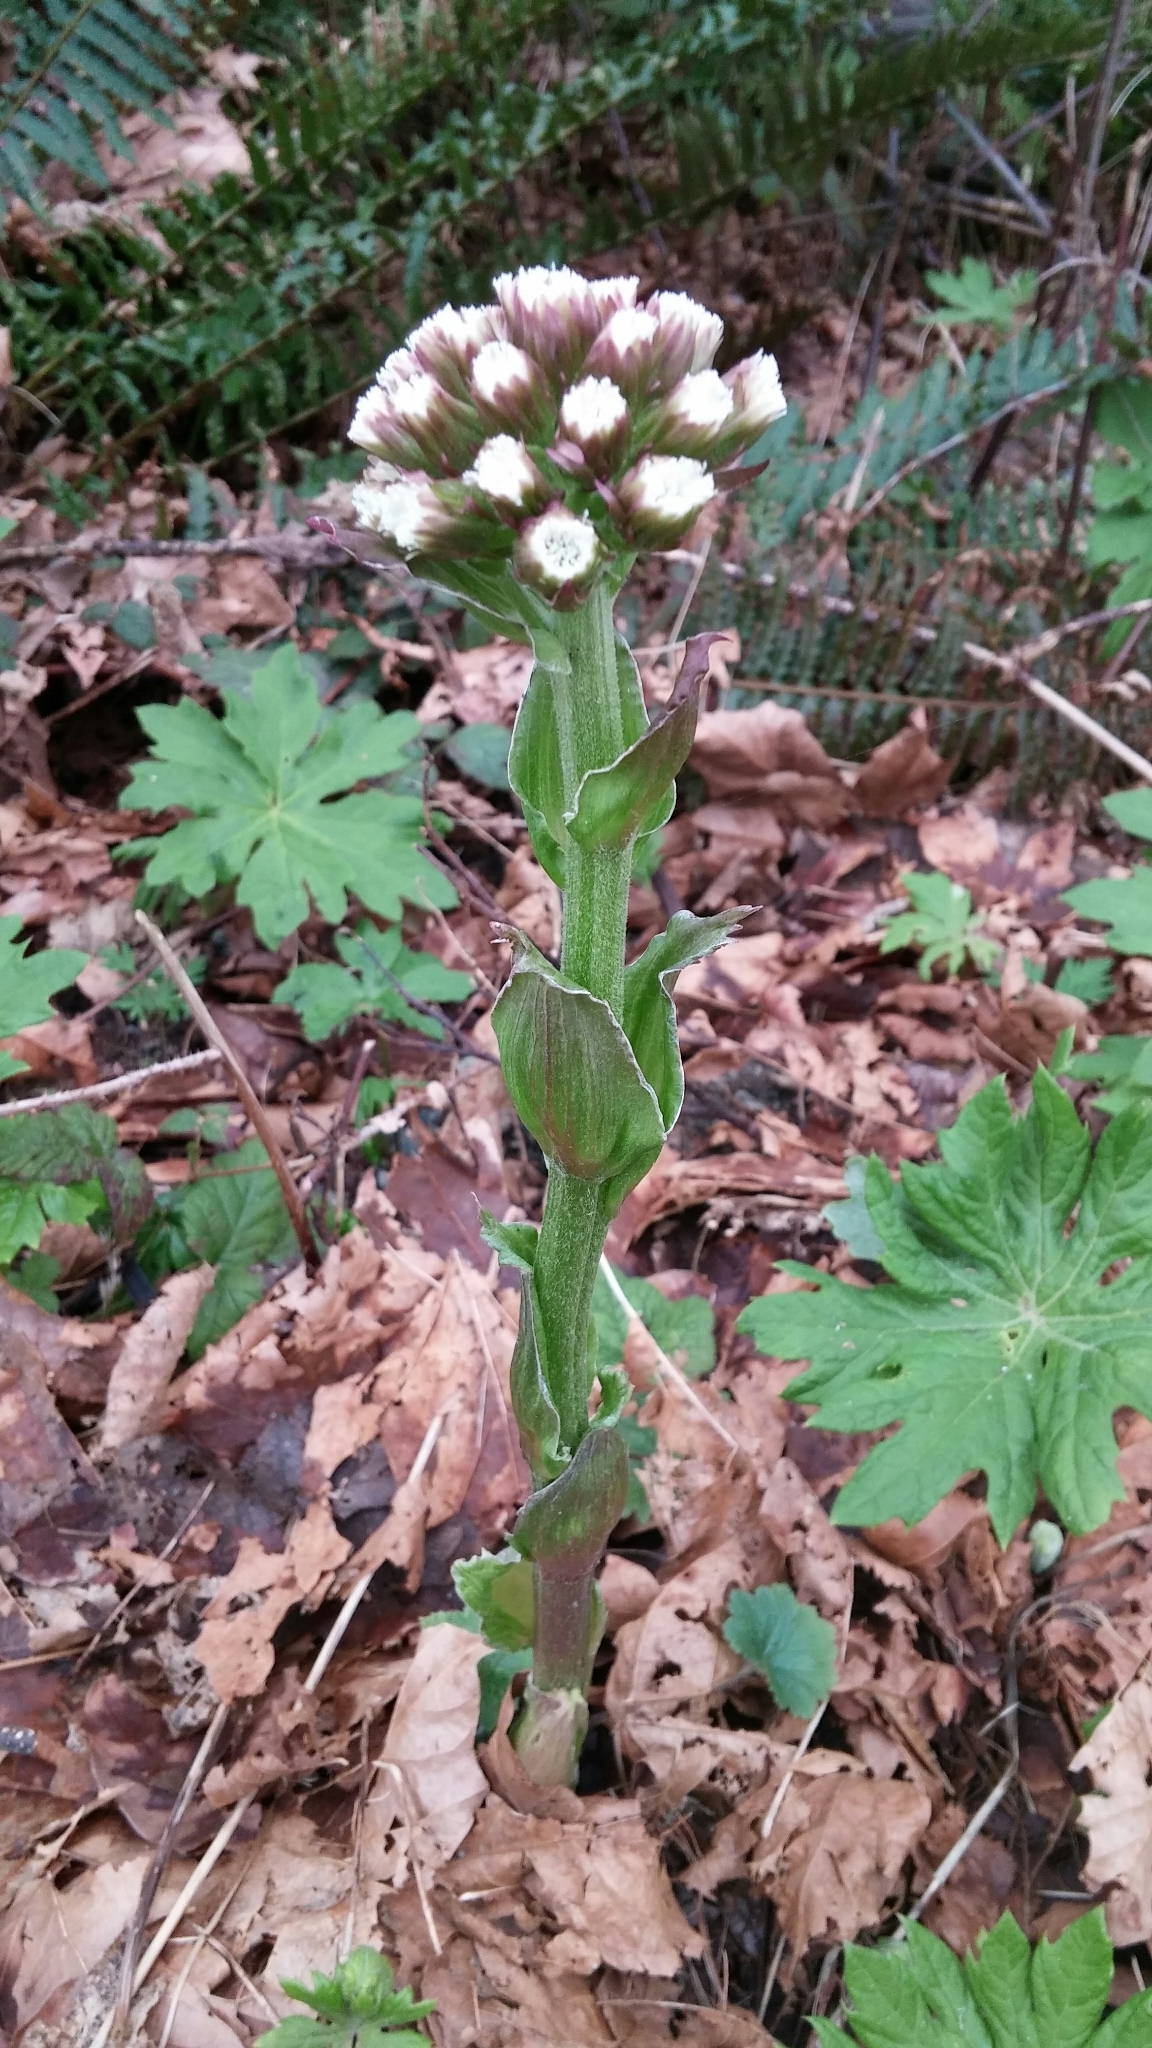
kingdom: Plantae
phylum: Tracheophyta
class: Magnoliopsida
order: Asterales
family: Asteraceae
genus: Petasites
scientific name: Petasites frigidus
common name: Arctic butterbur
